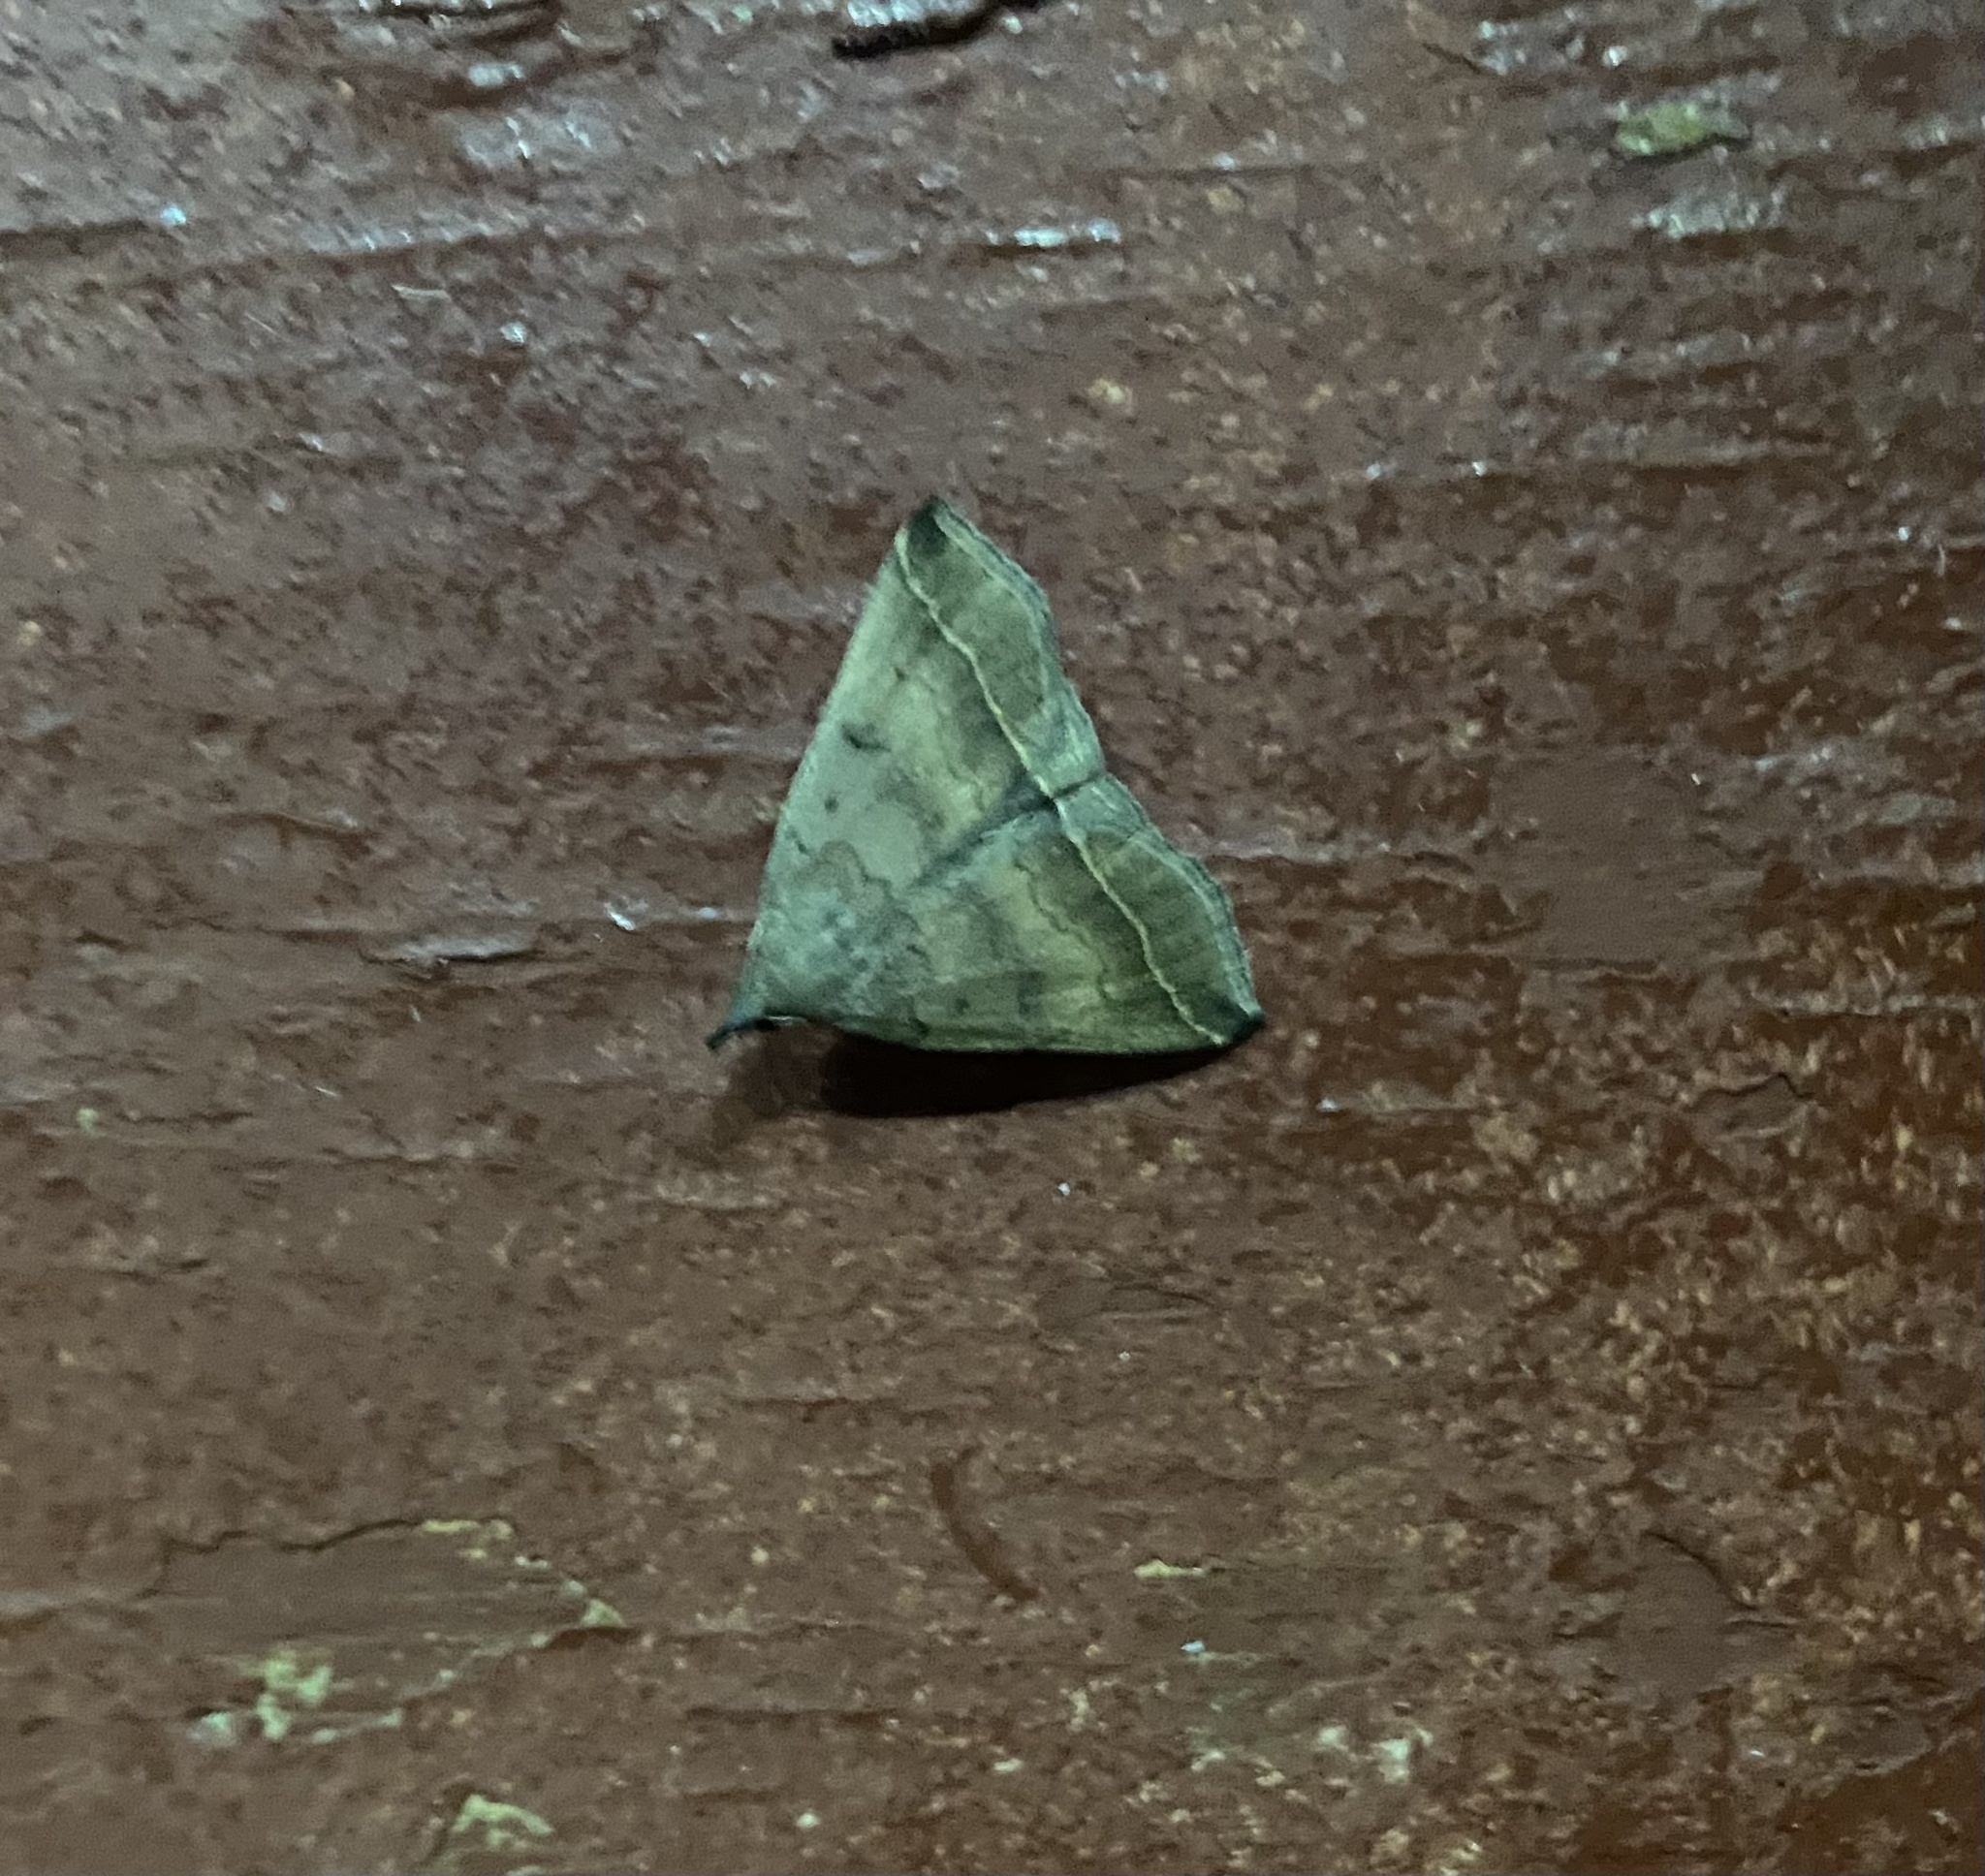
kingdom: Animalia
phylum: Arthropoda
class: Insecta
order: Lepidoptera
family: Erebidae
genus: Pechipogo
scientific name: Pechipogo plumigeralis
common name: Plumed fan-foot
